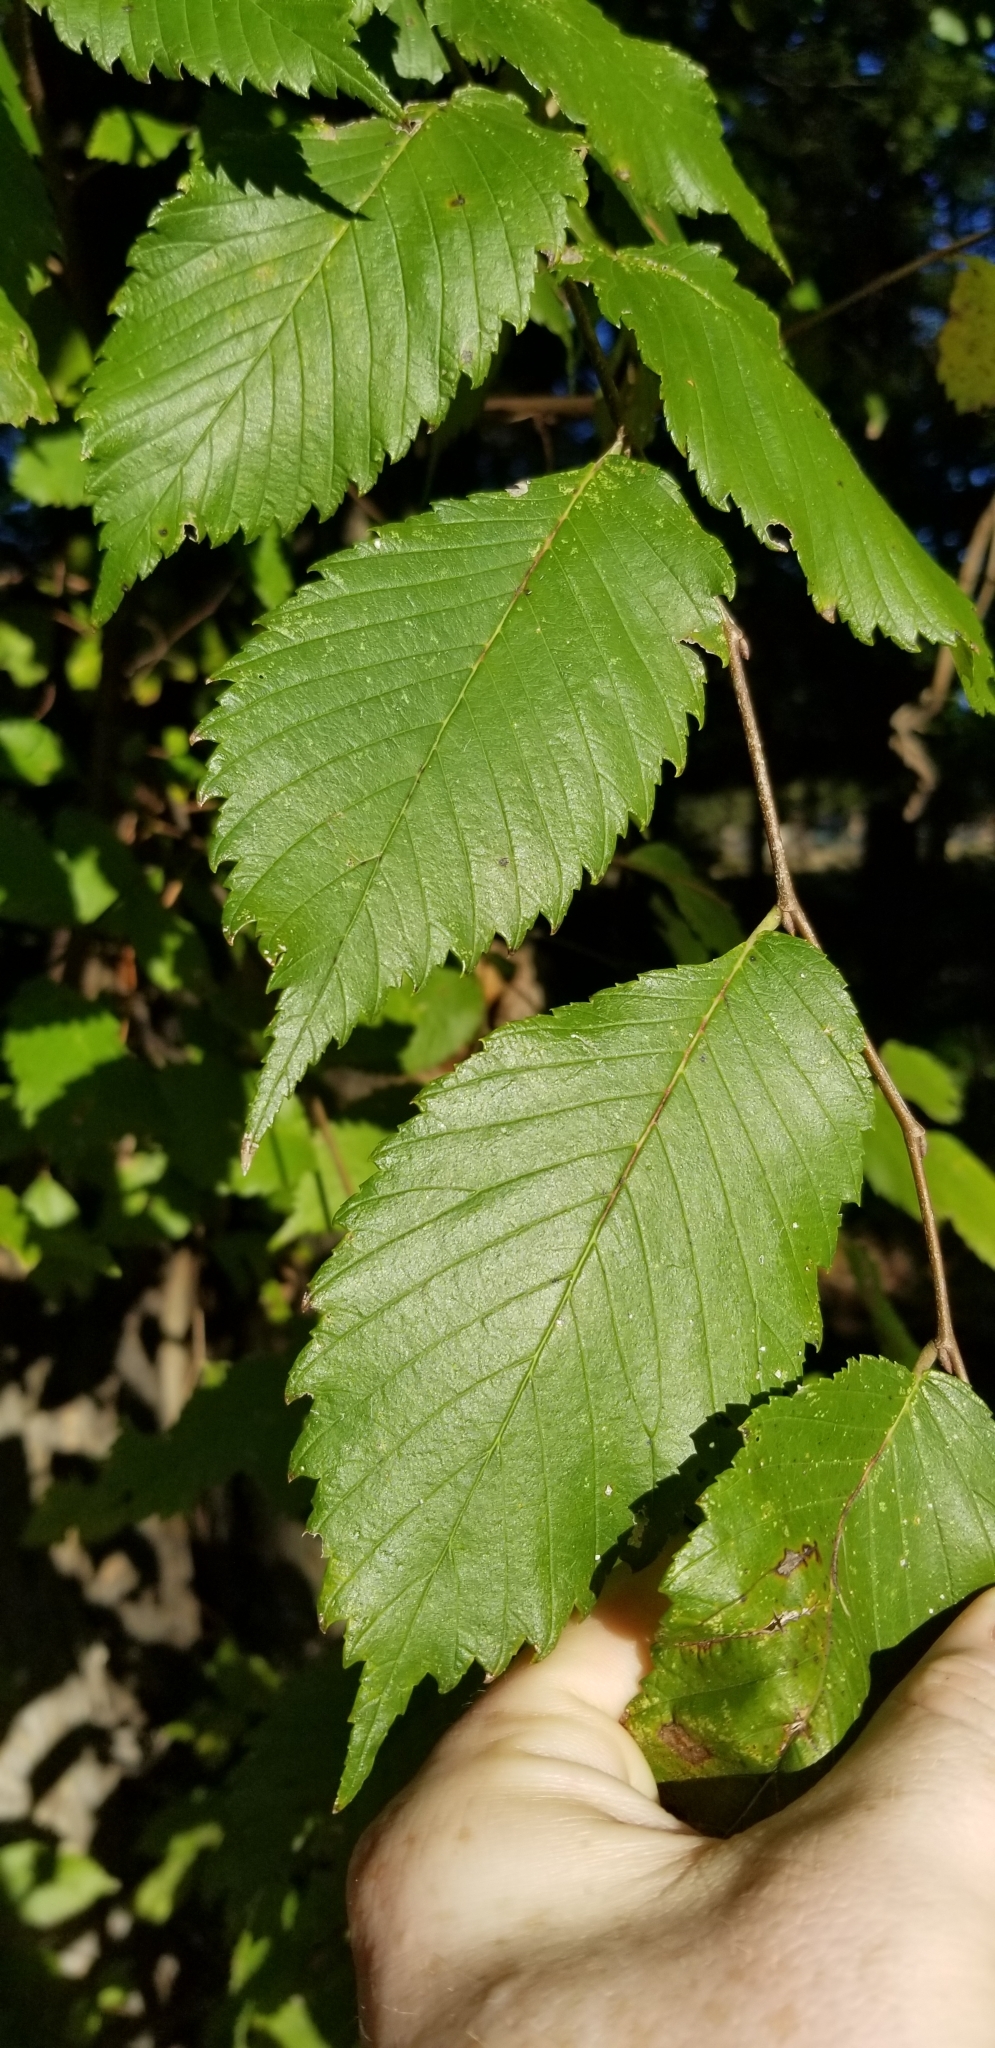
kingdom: Plantae
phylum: Tracheophyta
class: Magnoliopsida
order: Rosales
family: Ulmaceae
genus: Ulmus
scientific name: Ulmus americana
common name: American elm
